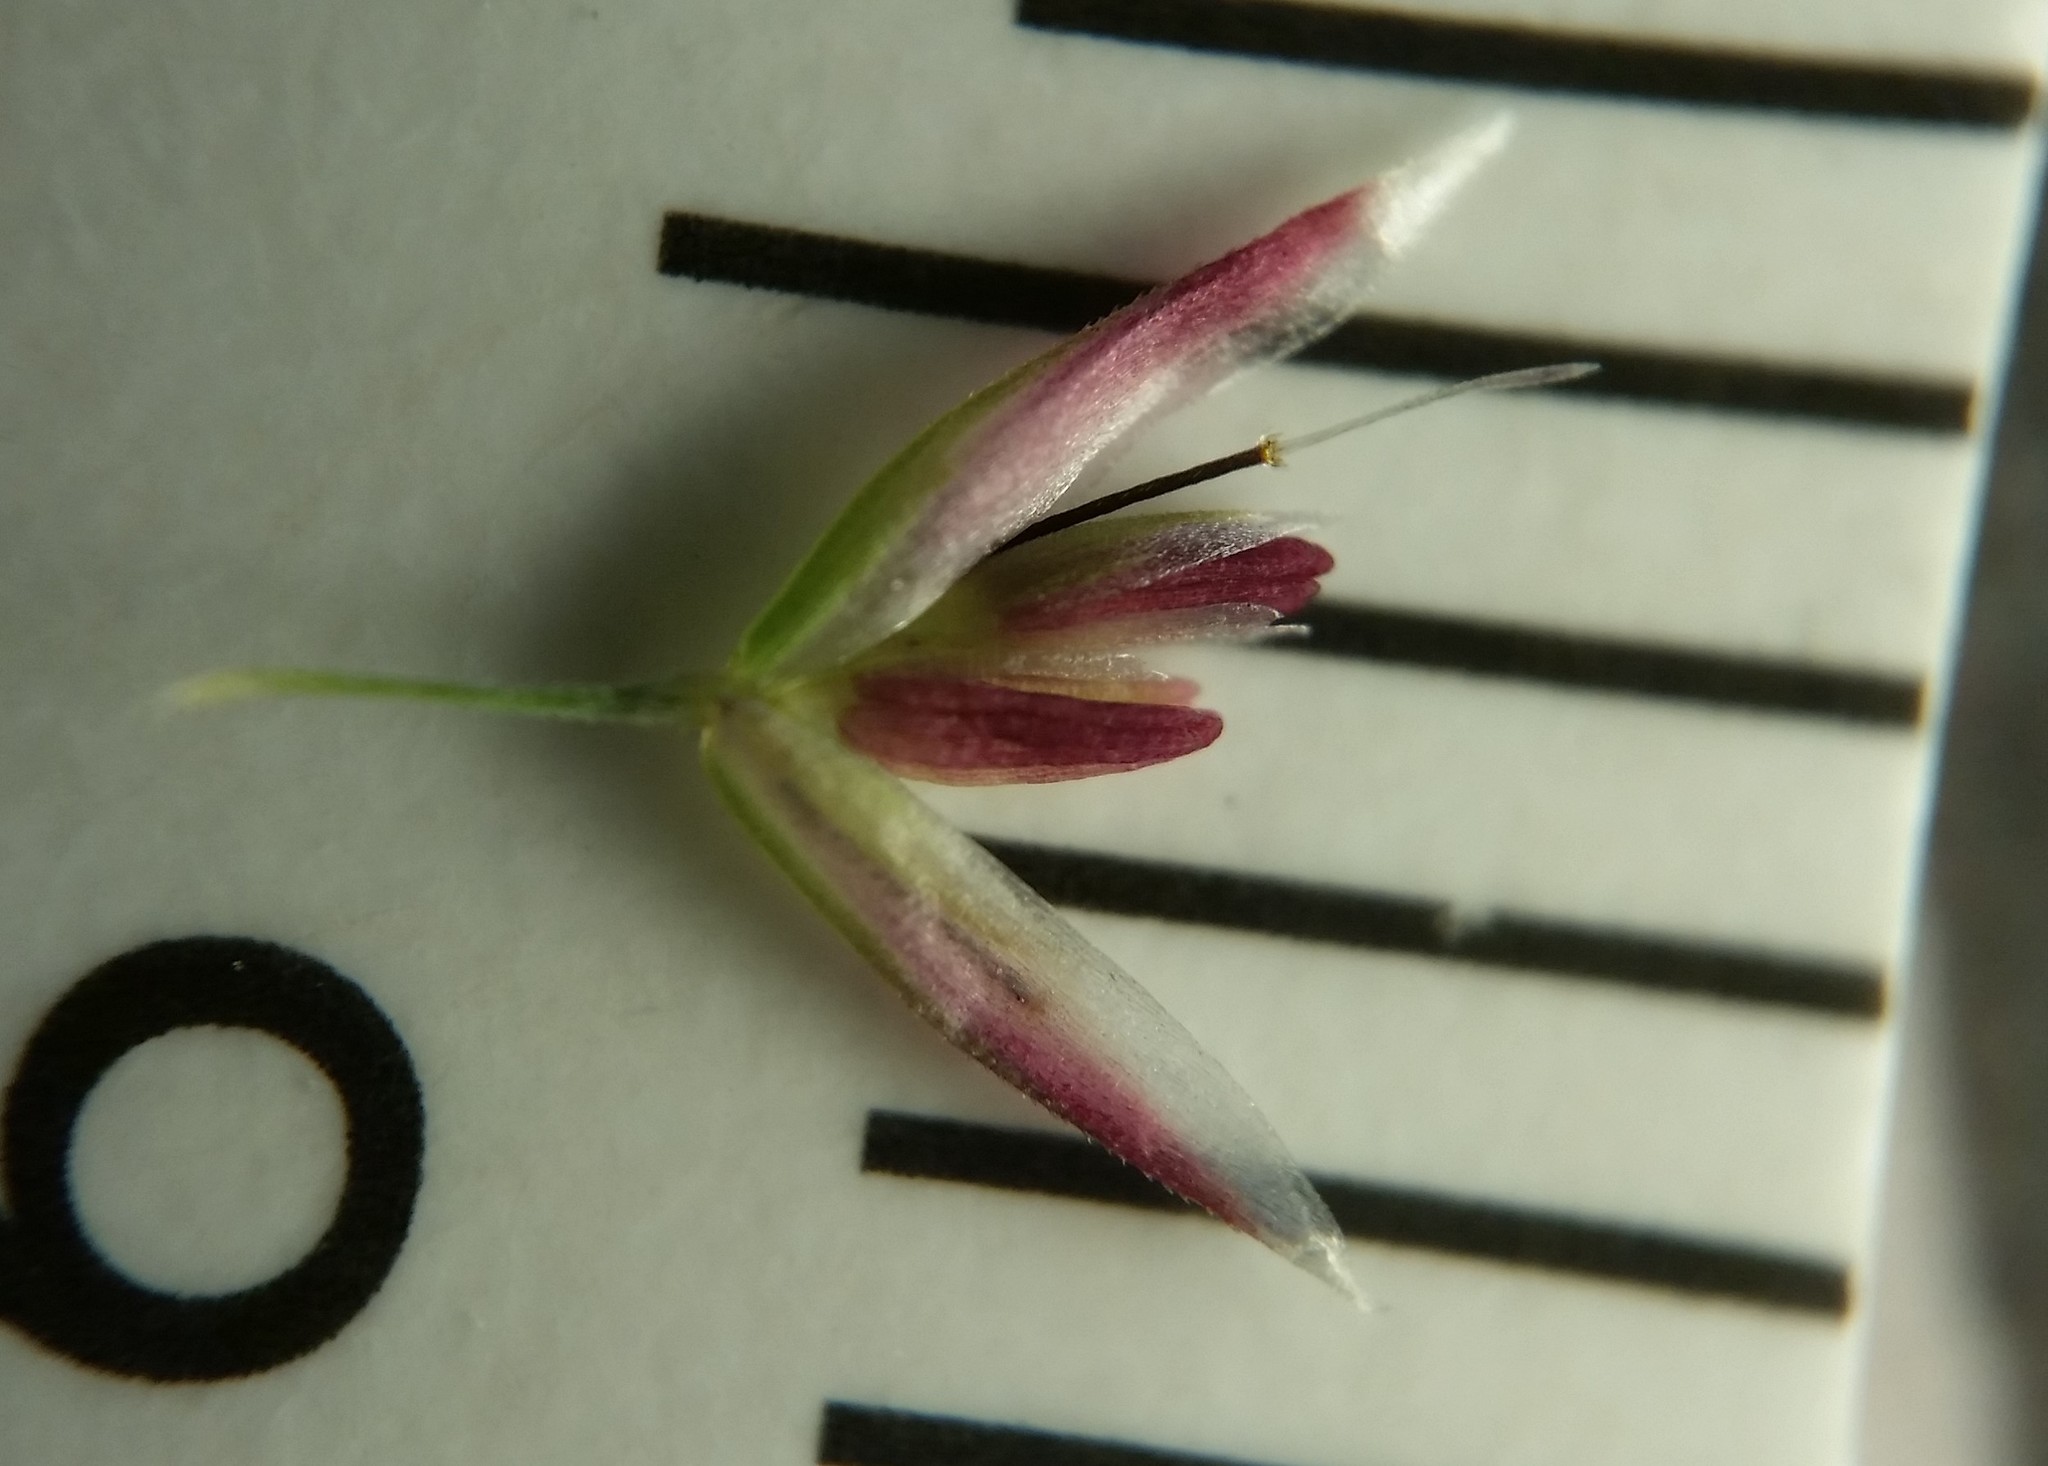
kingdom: Plantae
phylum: Tracheophyta
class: Liliopsida
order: Poales
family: Poaceae
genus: Corynephorus
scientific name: Corynephorus canescens
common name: Grey hair-grass
